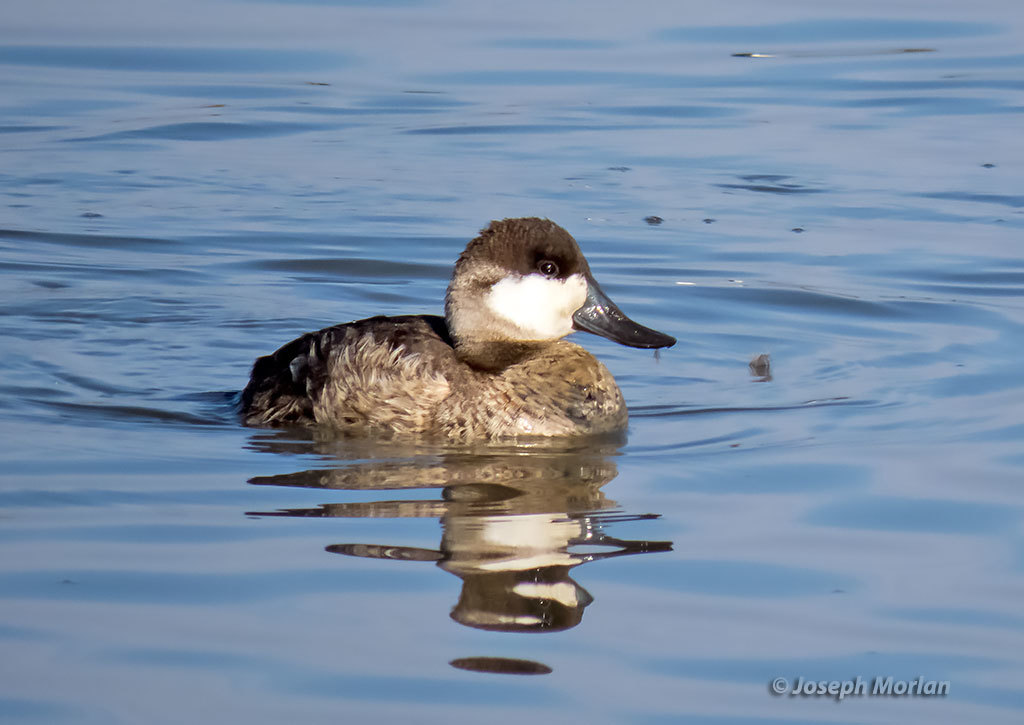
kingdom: Animalia
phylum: Chordata
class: Aves
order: Anseriformes
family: Anatidae
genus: Oxyura
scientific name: Oxyura jamaicensis
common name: Ruddy duck
